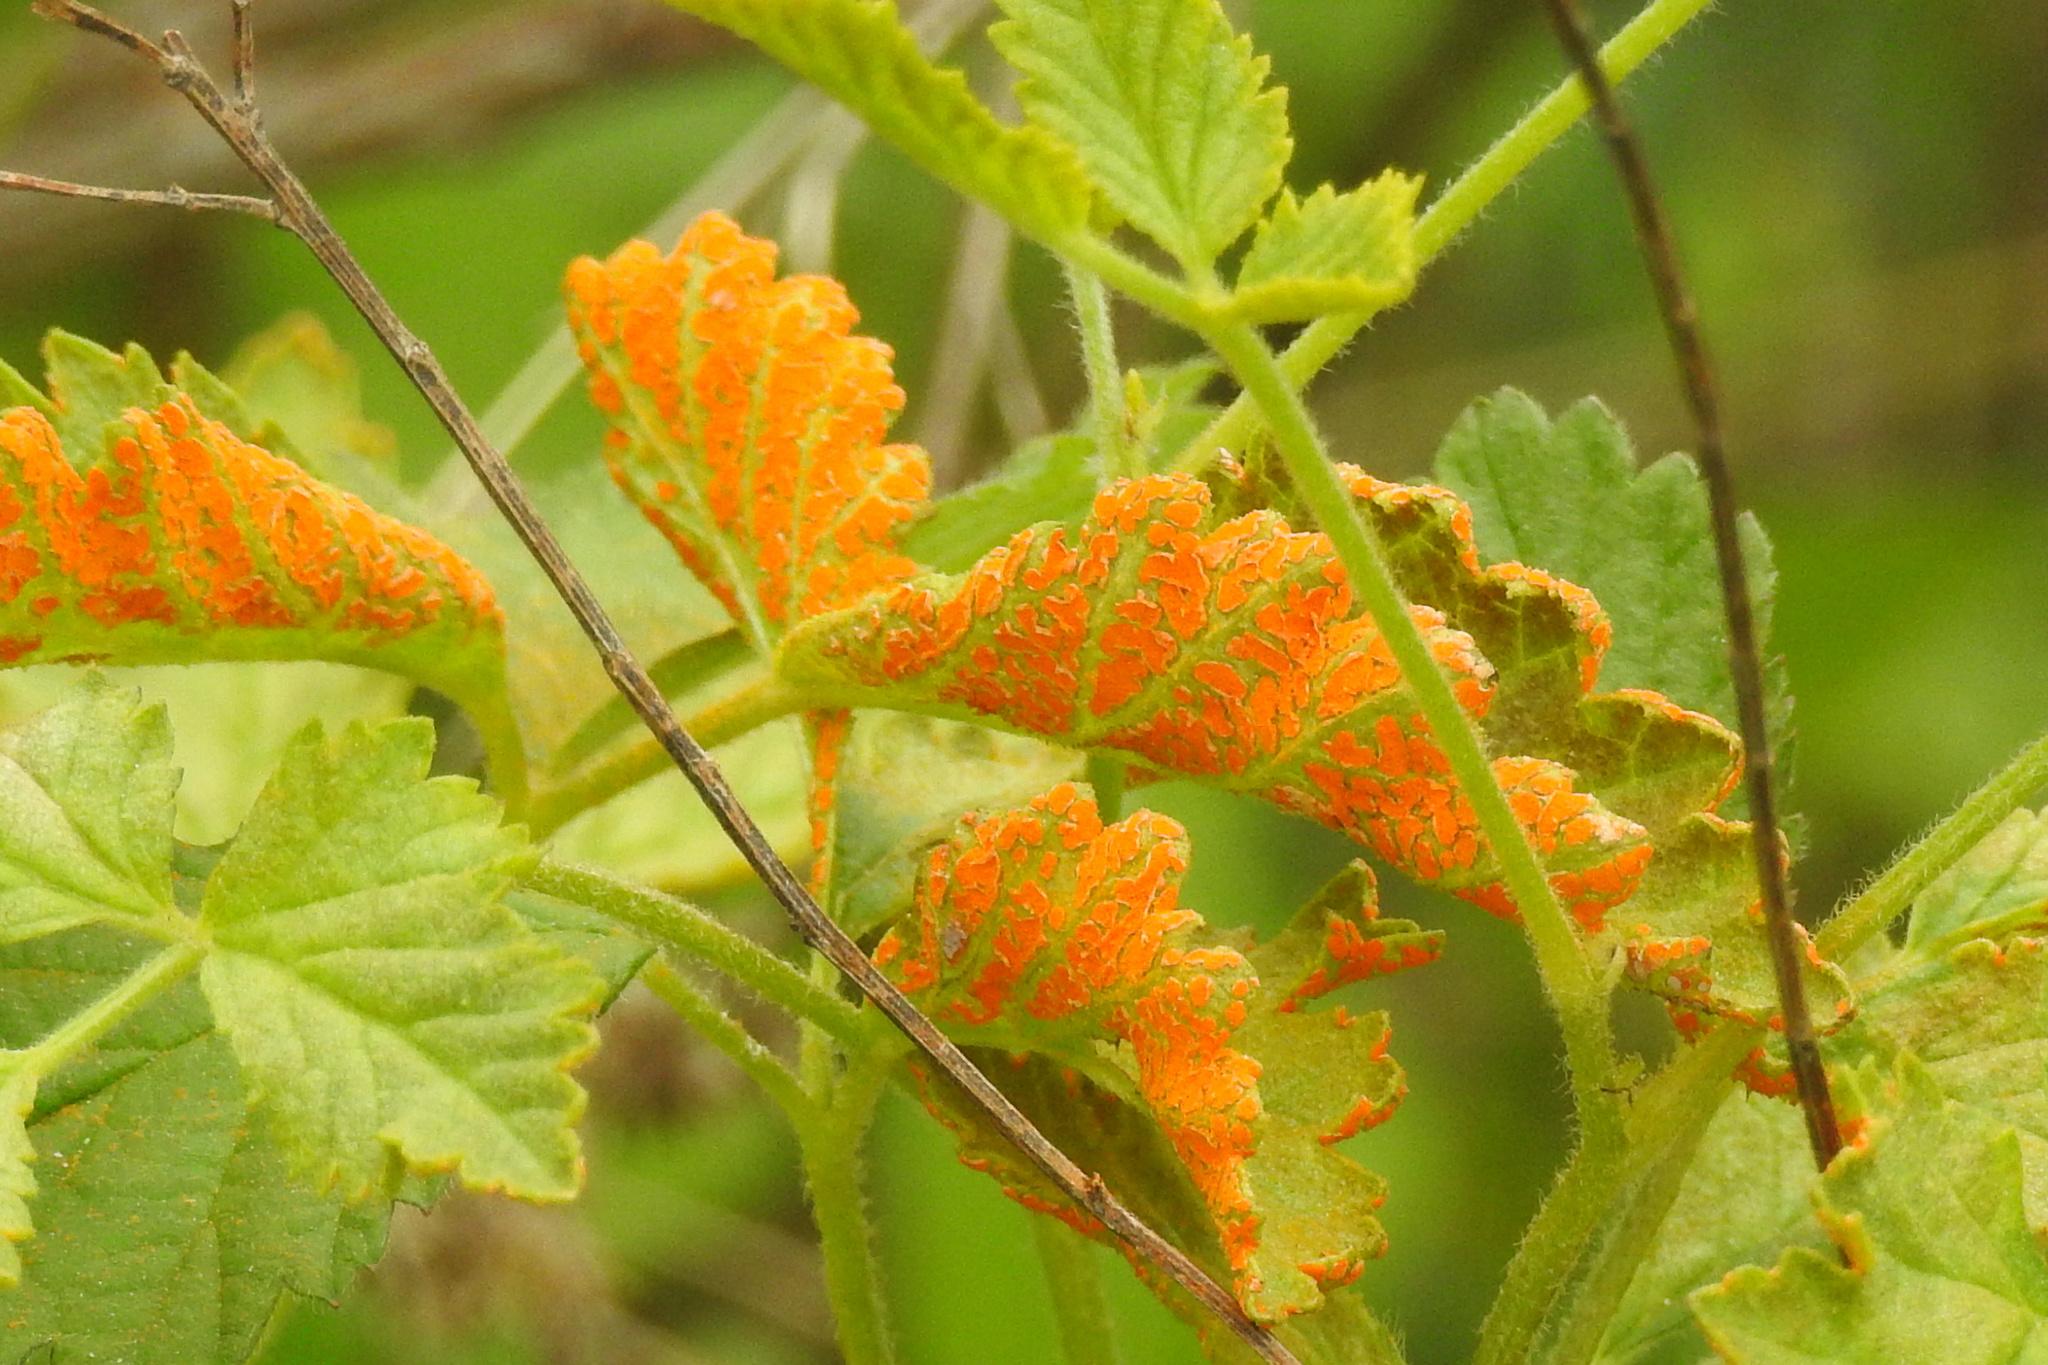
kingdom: Fungi
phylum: Basidiomycota
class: Pucciniomycetes
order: Pucciniales
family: Phragmidiaceae
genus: Arthuriomyces
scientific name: Arthuriomyces peckianus
